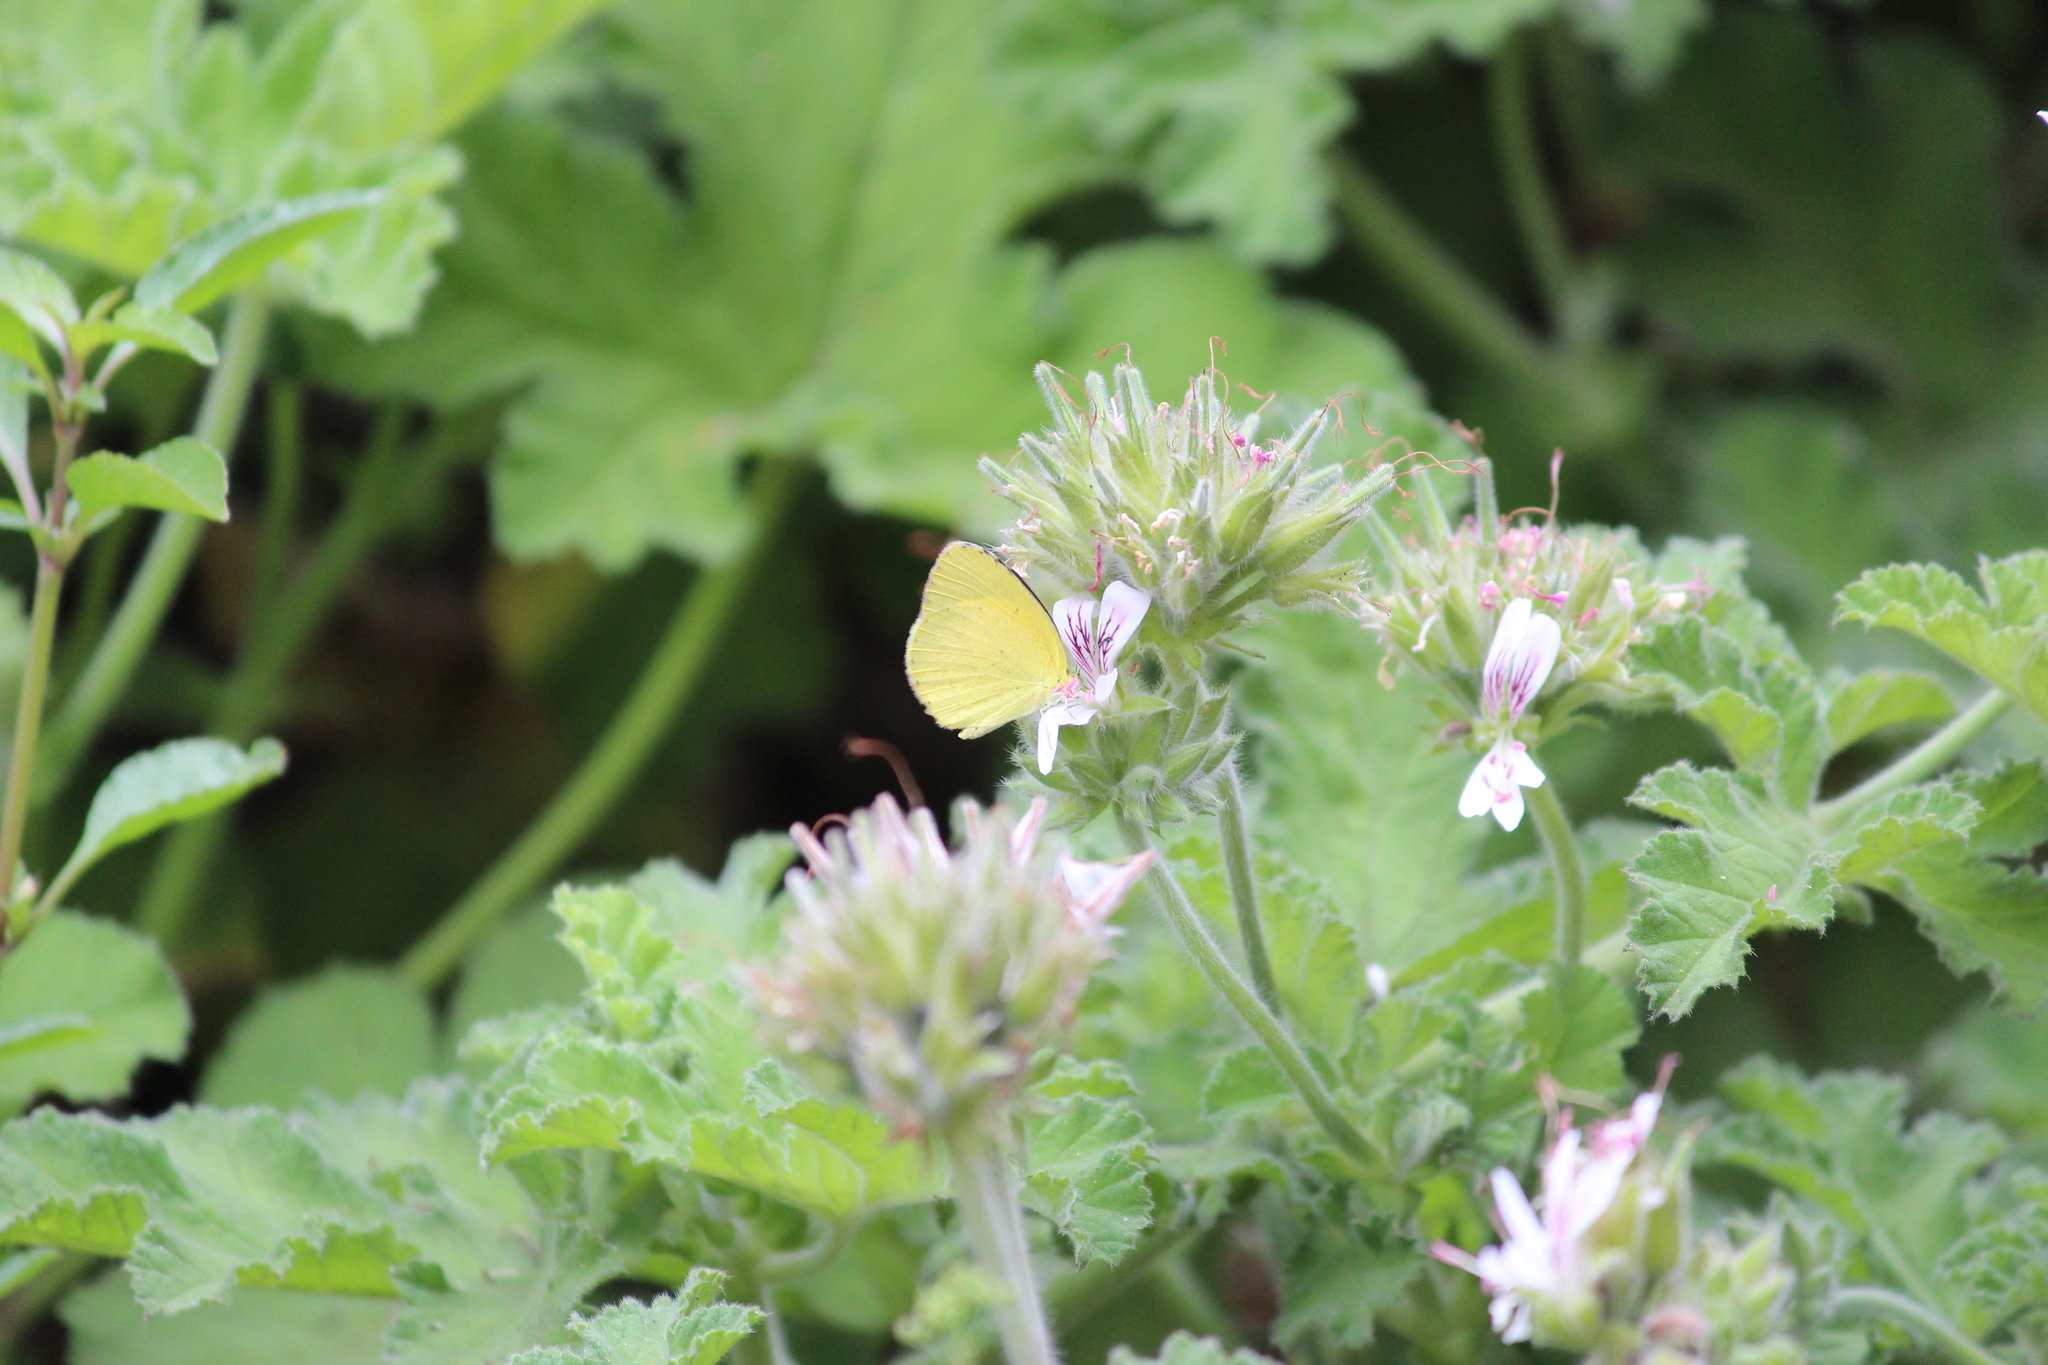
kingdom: Animalia
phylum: Arthropoda
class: Insecta
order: Lepidoptera
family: Pieridae
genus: Eurema
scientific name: Eurema brigitta
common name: Small grass yellow
